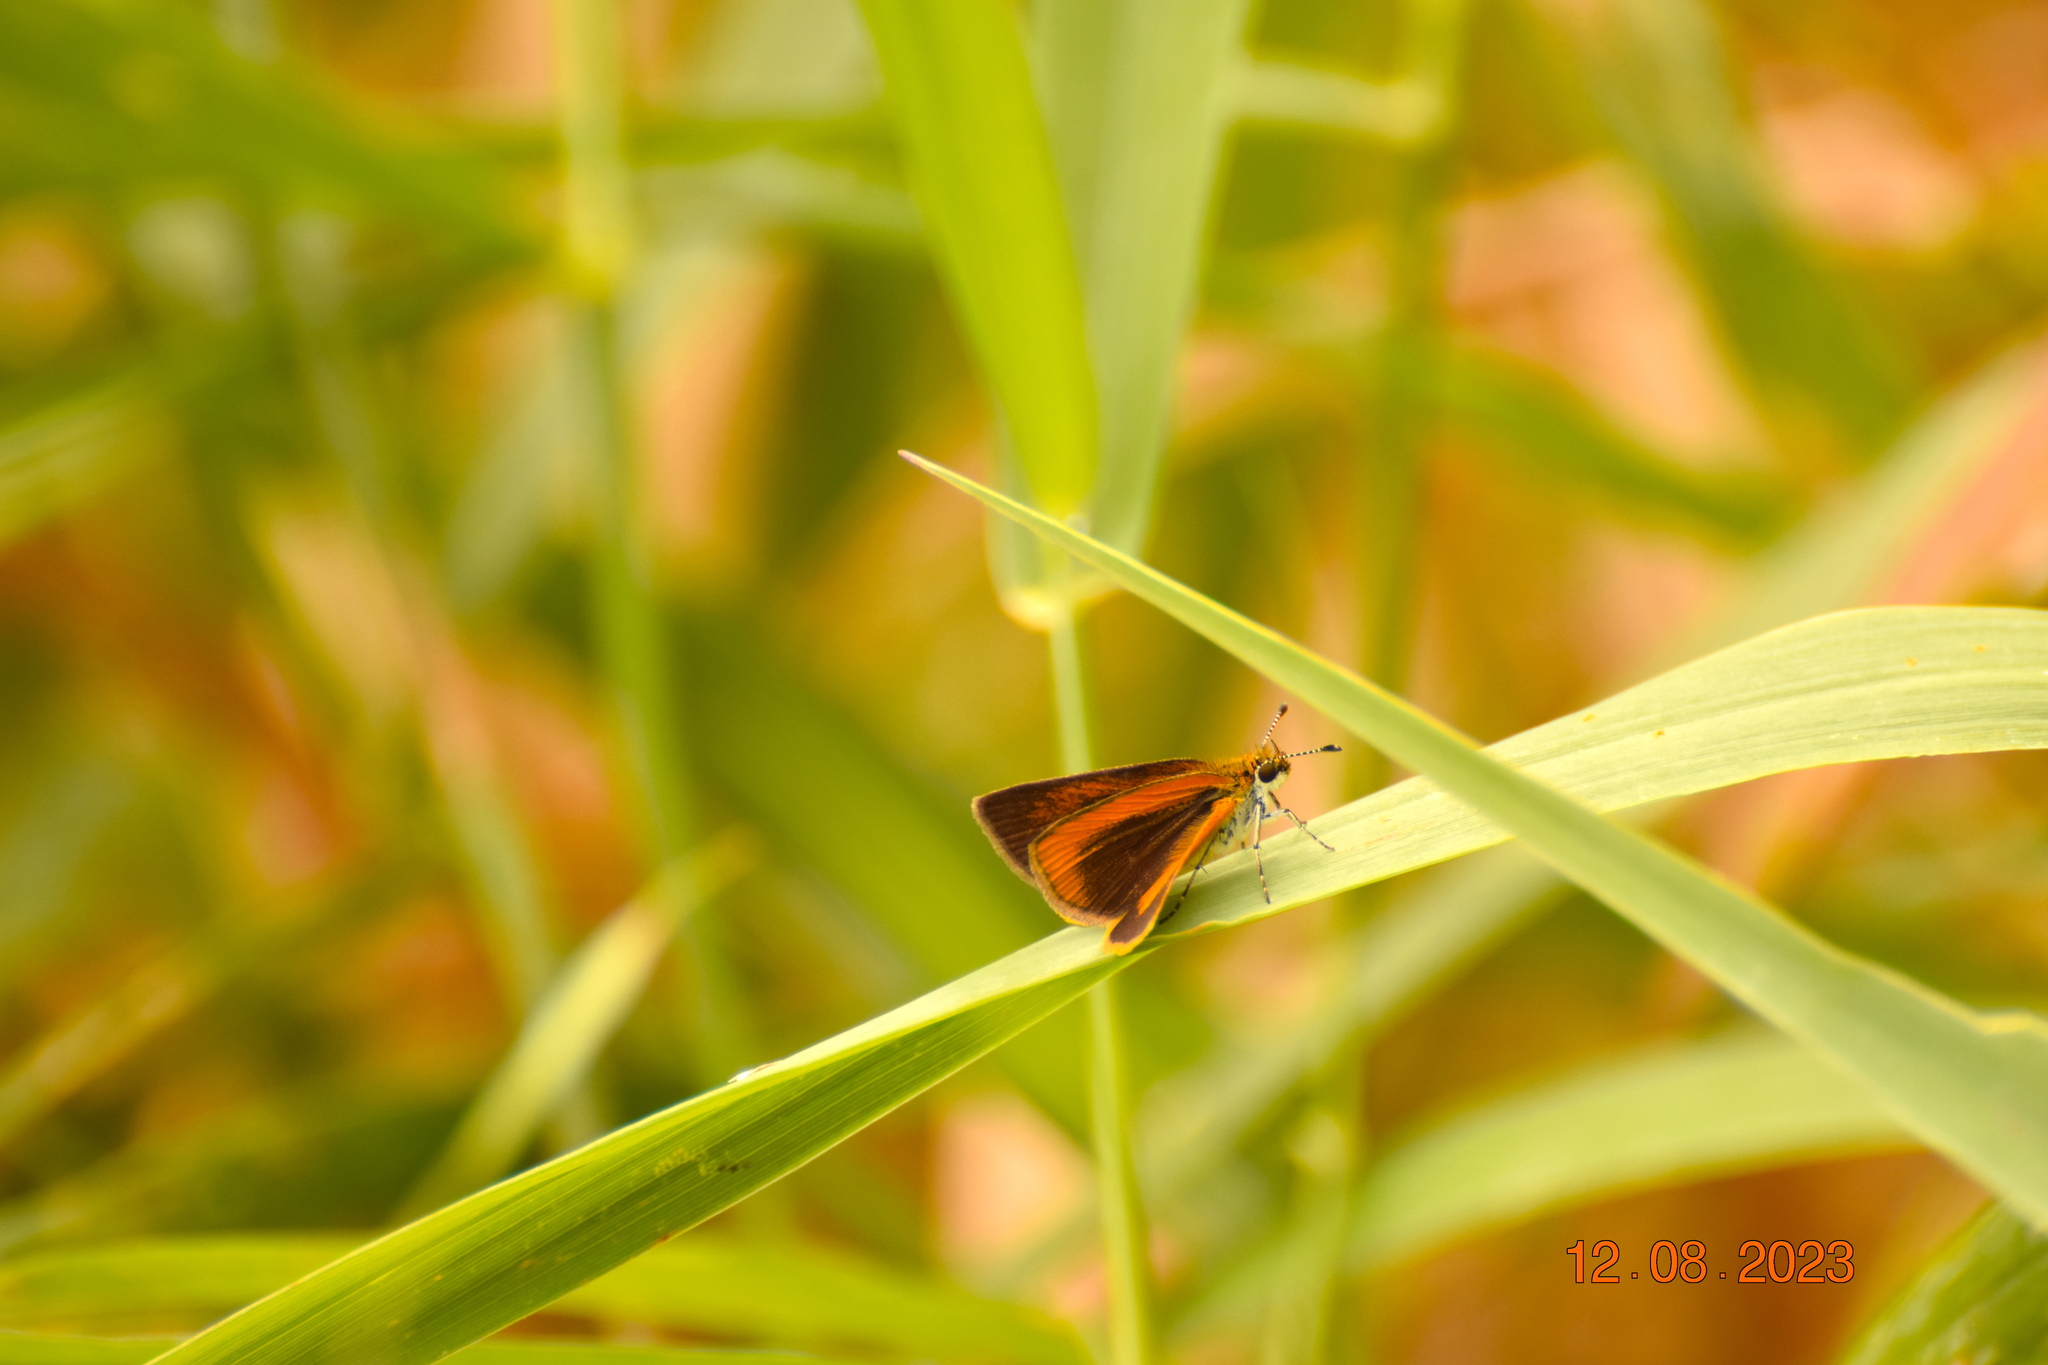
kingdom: Animalia
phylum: Arthropoda
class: Insecta
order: Lepidoptera
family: Hesperiidae
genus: Ancyloxypha
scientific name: Ancyloxypha numitor
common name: Least skipper
